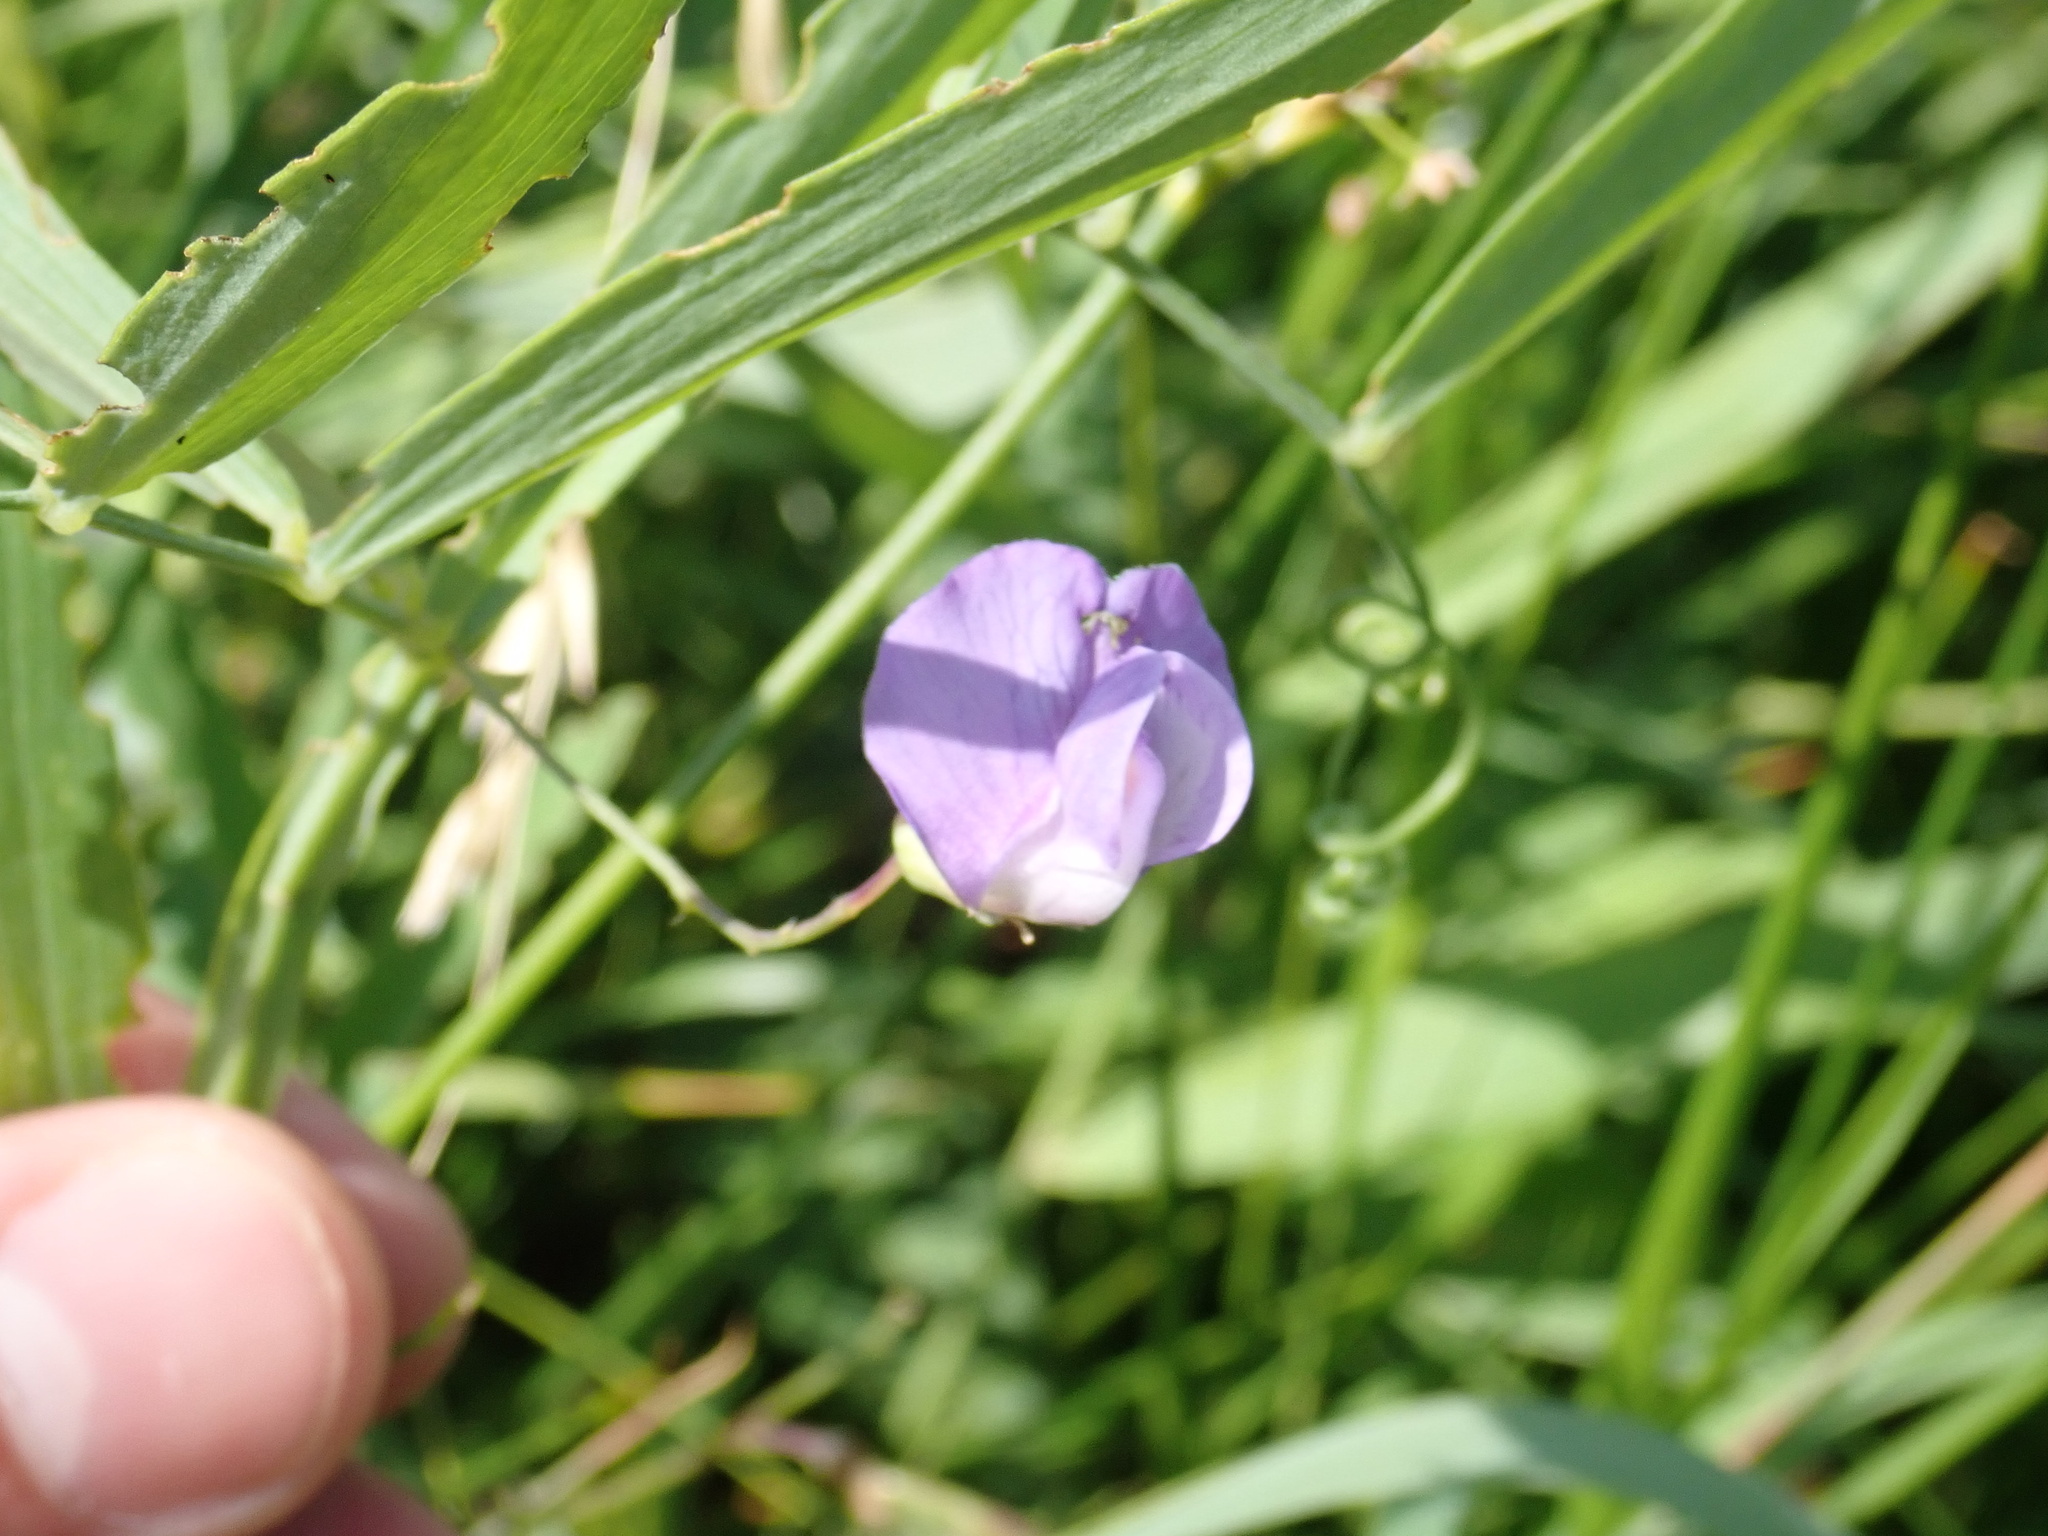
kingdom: Plantae
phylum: Tracheophyta
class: Magnoliopsida
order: Fabales
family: Fabaceae
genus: Lathyrus
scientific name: Lathyrus palustris
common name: Marsh pea
